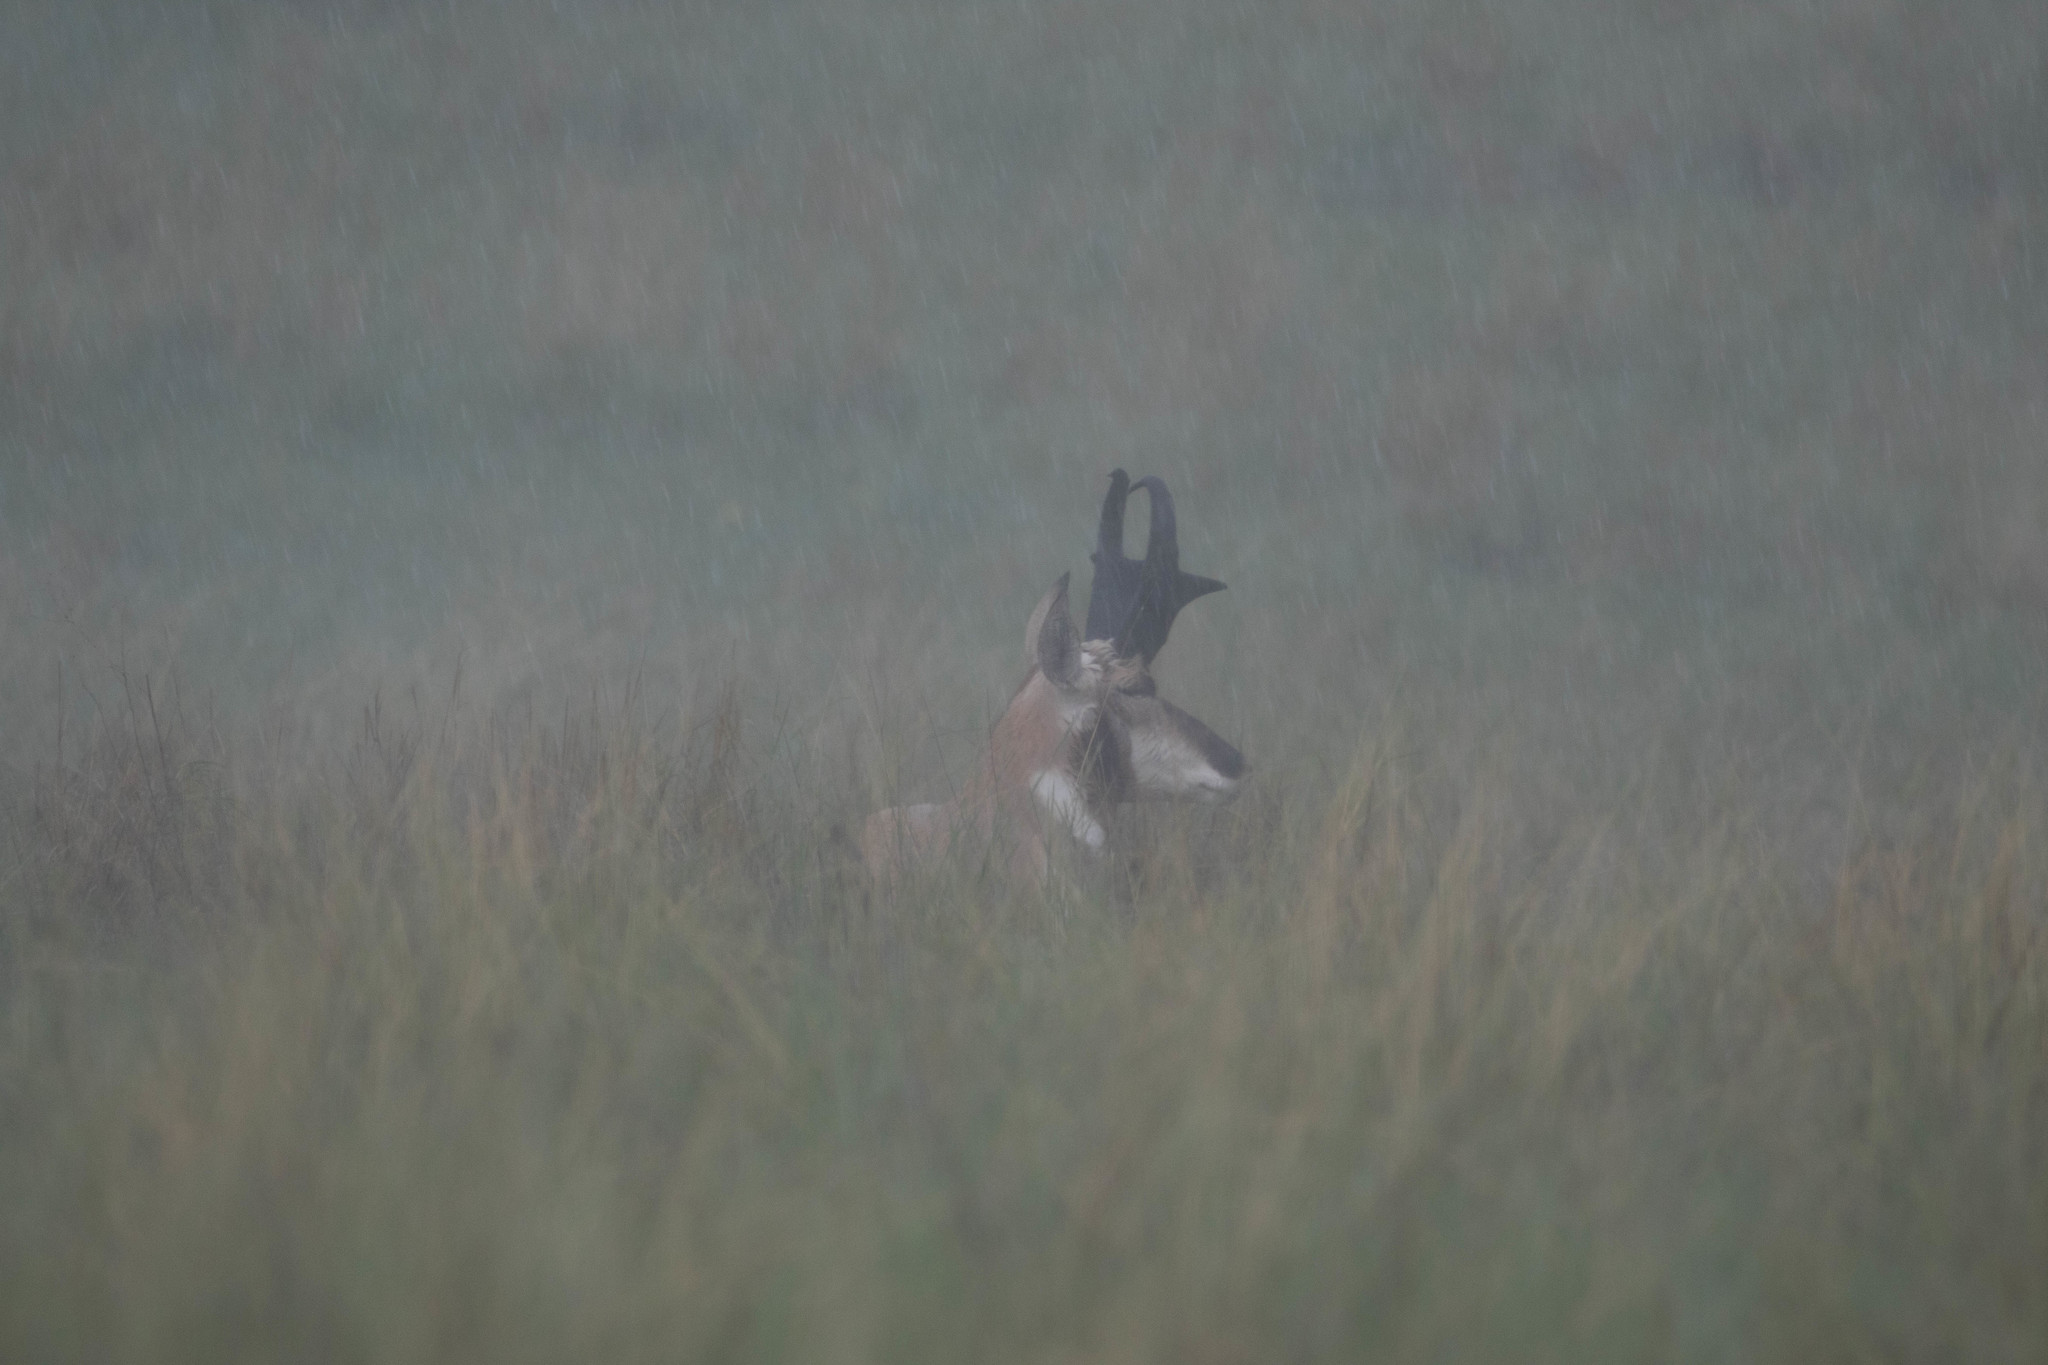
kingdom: Animalia
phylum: Chordata
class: Mammalia
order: Artiodactyla
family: Antilocapridae
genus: Antilocapra
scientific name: Antilocapra americana
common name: Pronghorn
